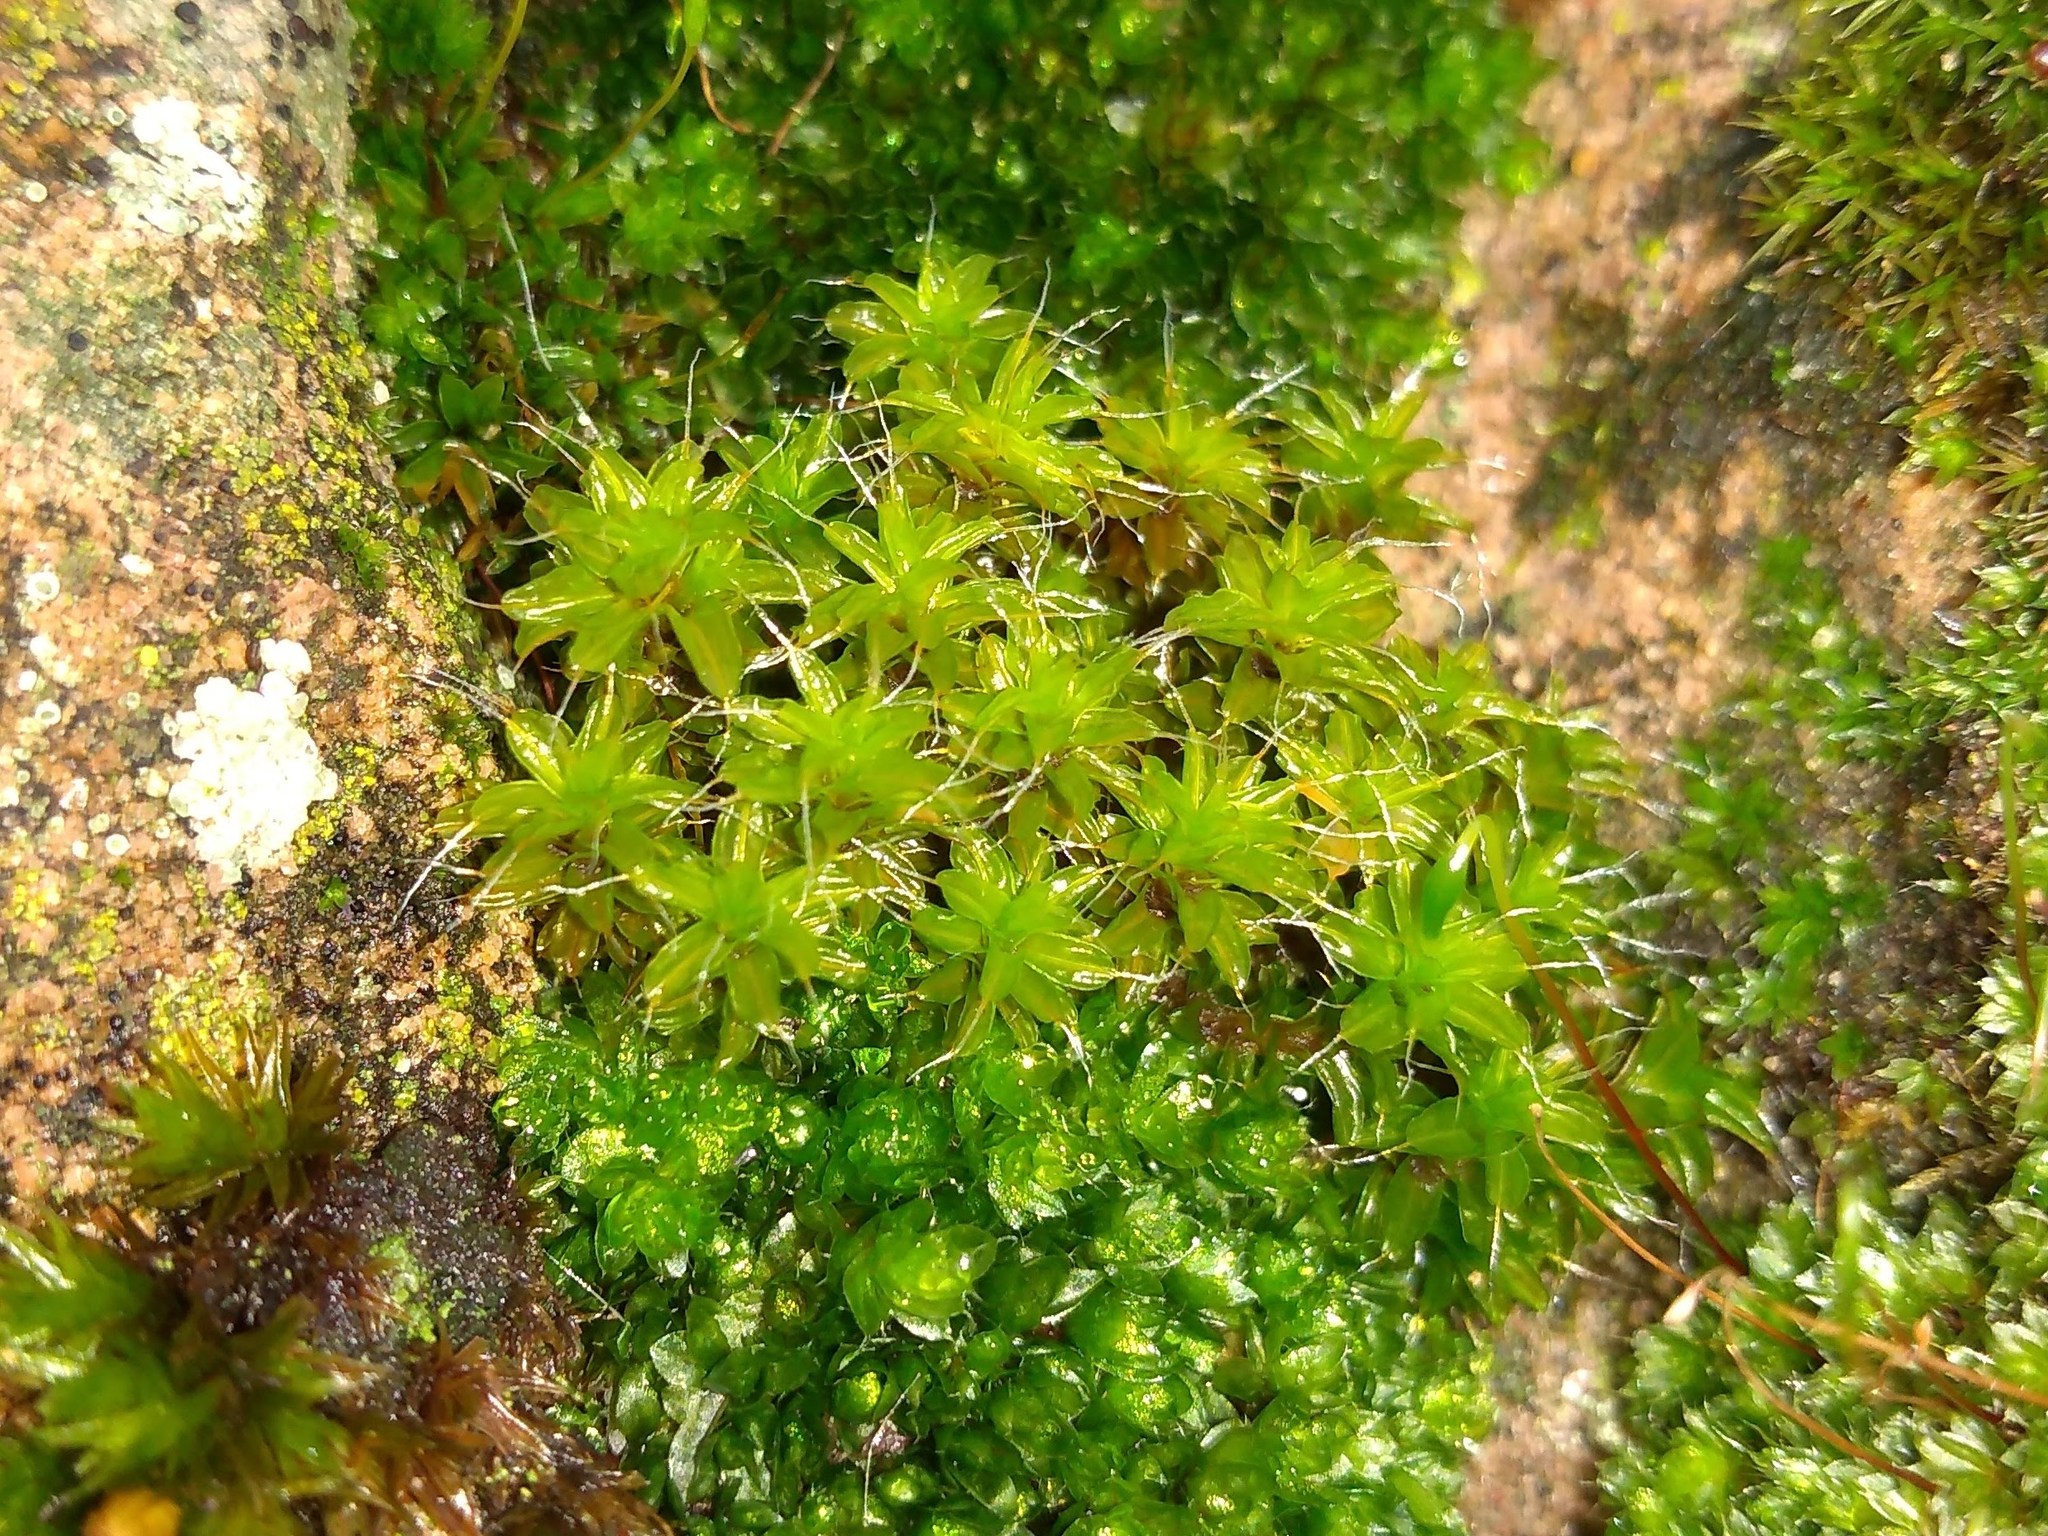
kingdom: Plantae
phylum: Bryophyta
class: Bryopsida
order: Pottiales
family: Pottiaceae
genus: Syntrichia
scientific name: Syntrichia ruralis
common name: Sidewalk screw moss
